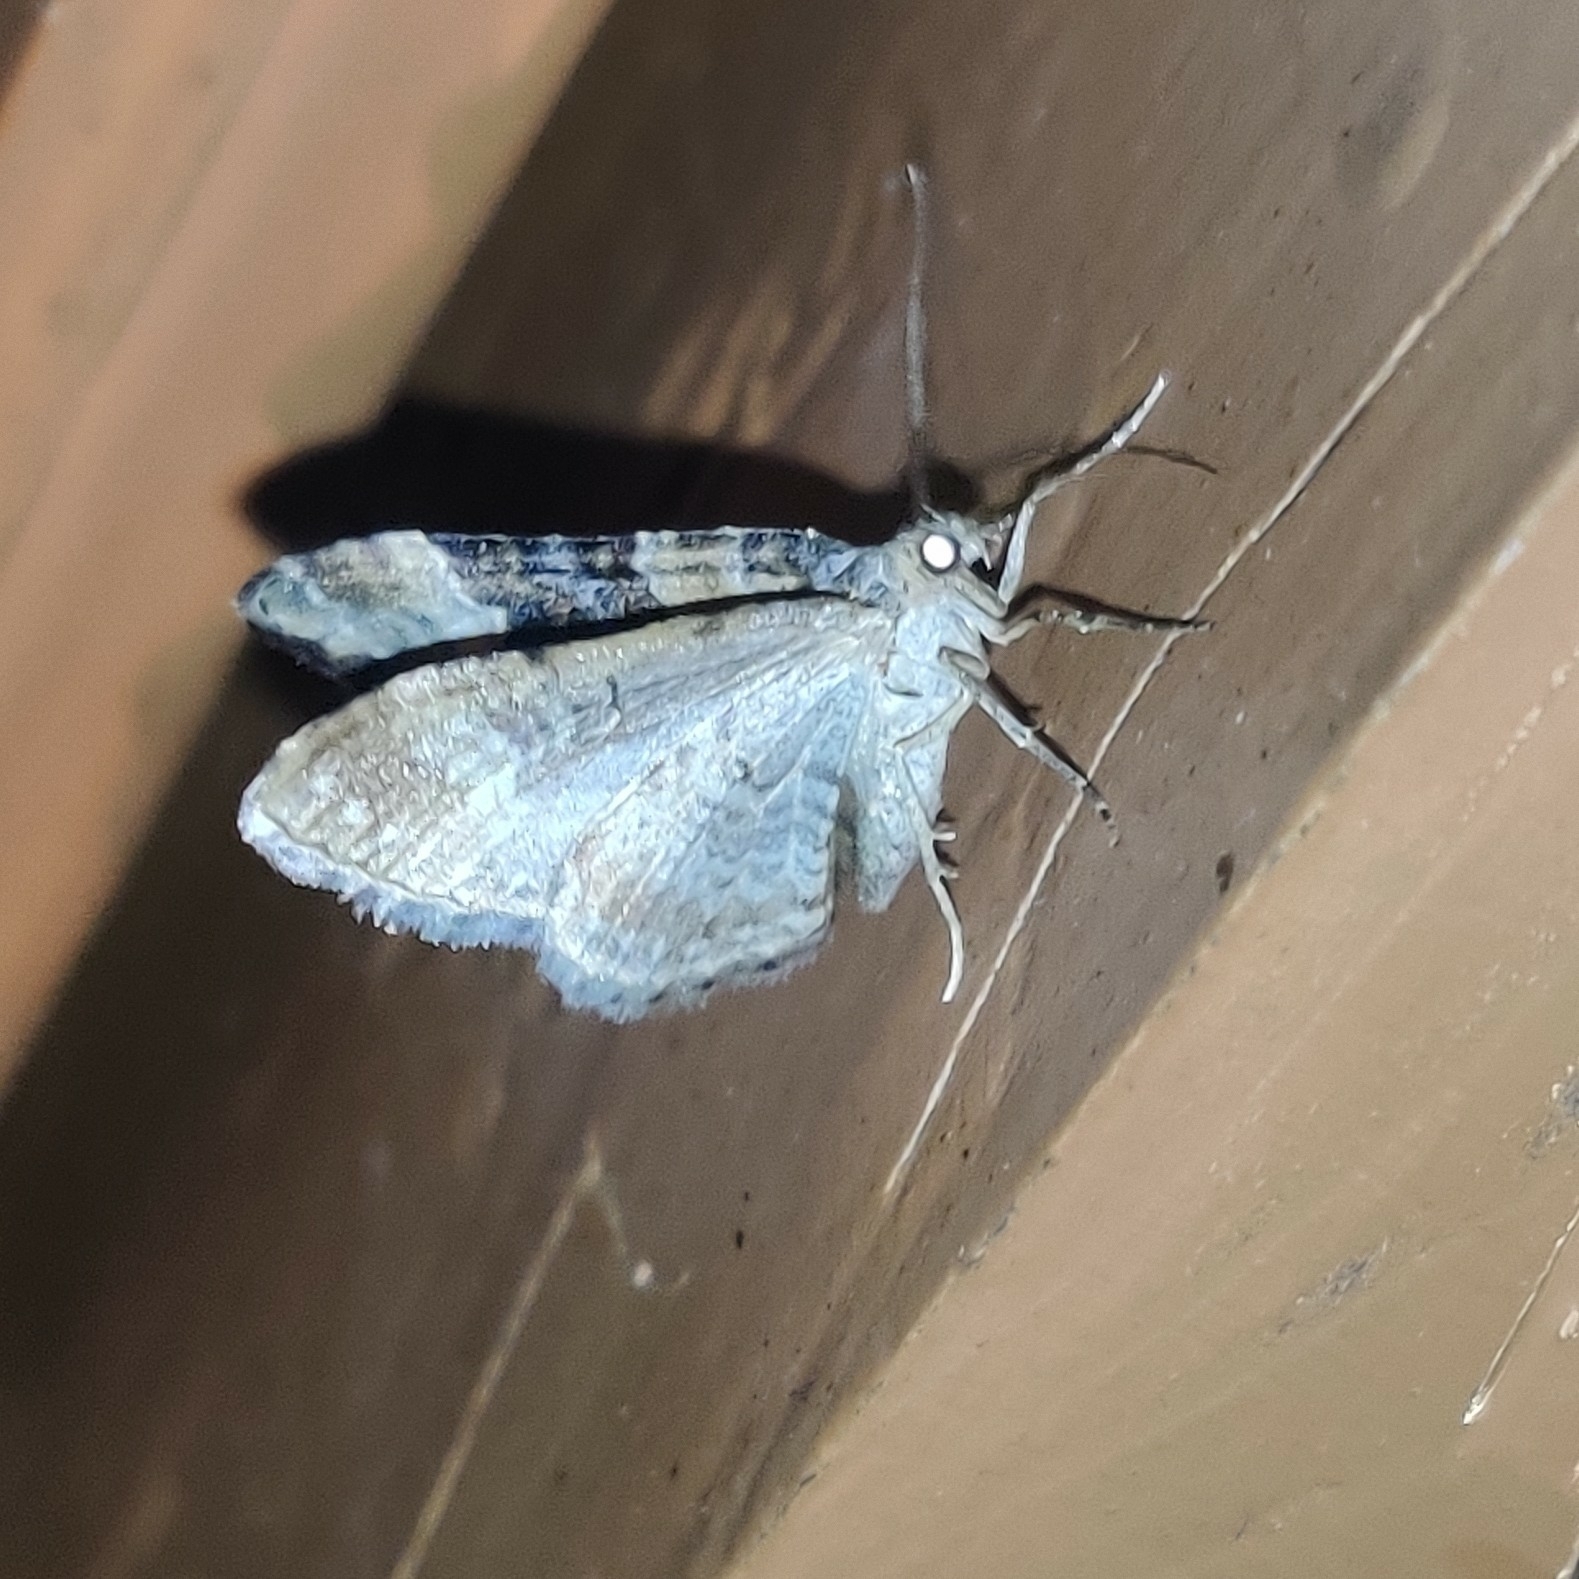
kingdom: Animalia
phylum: Arthropoda
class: Insecta
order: Lepidoptera
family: Geometridae
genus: Euphyia
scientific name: Euphyia subangulata
